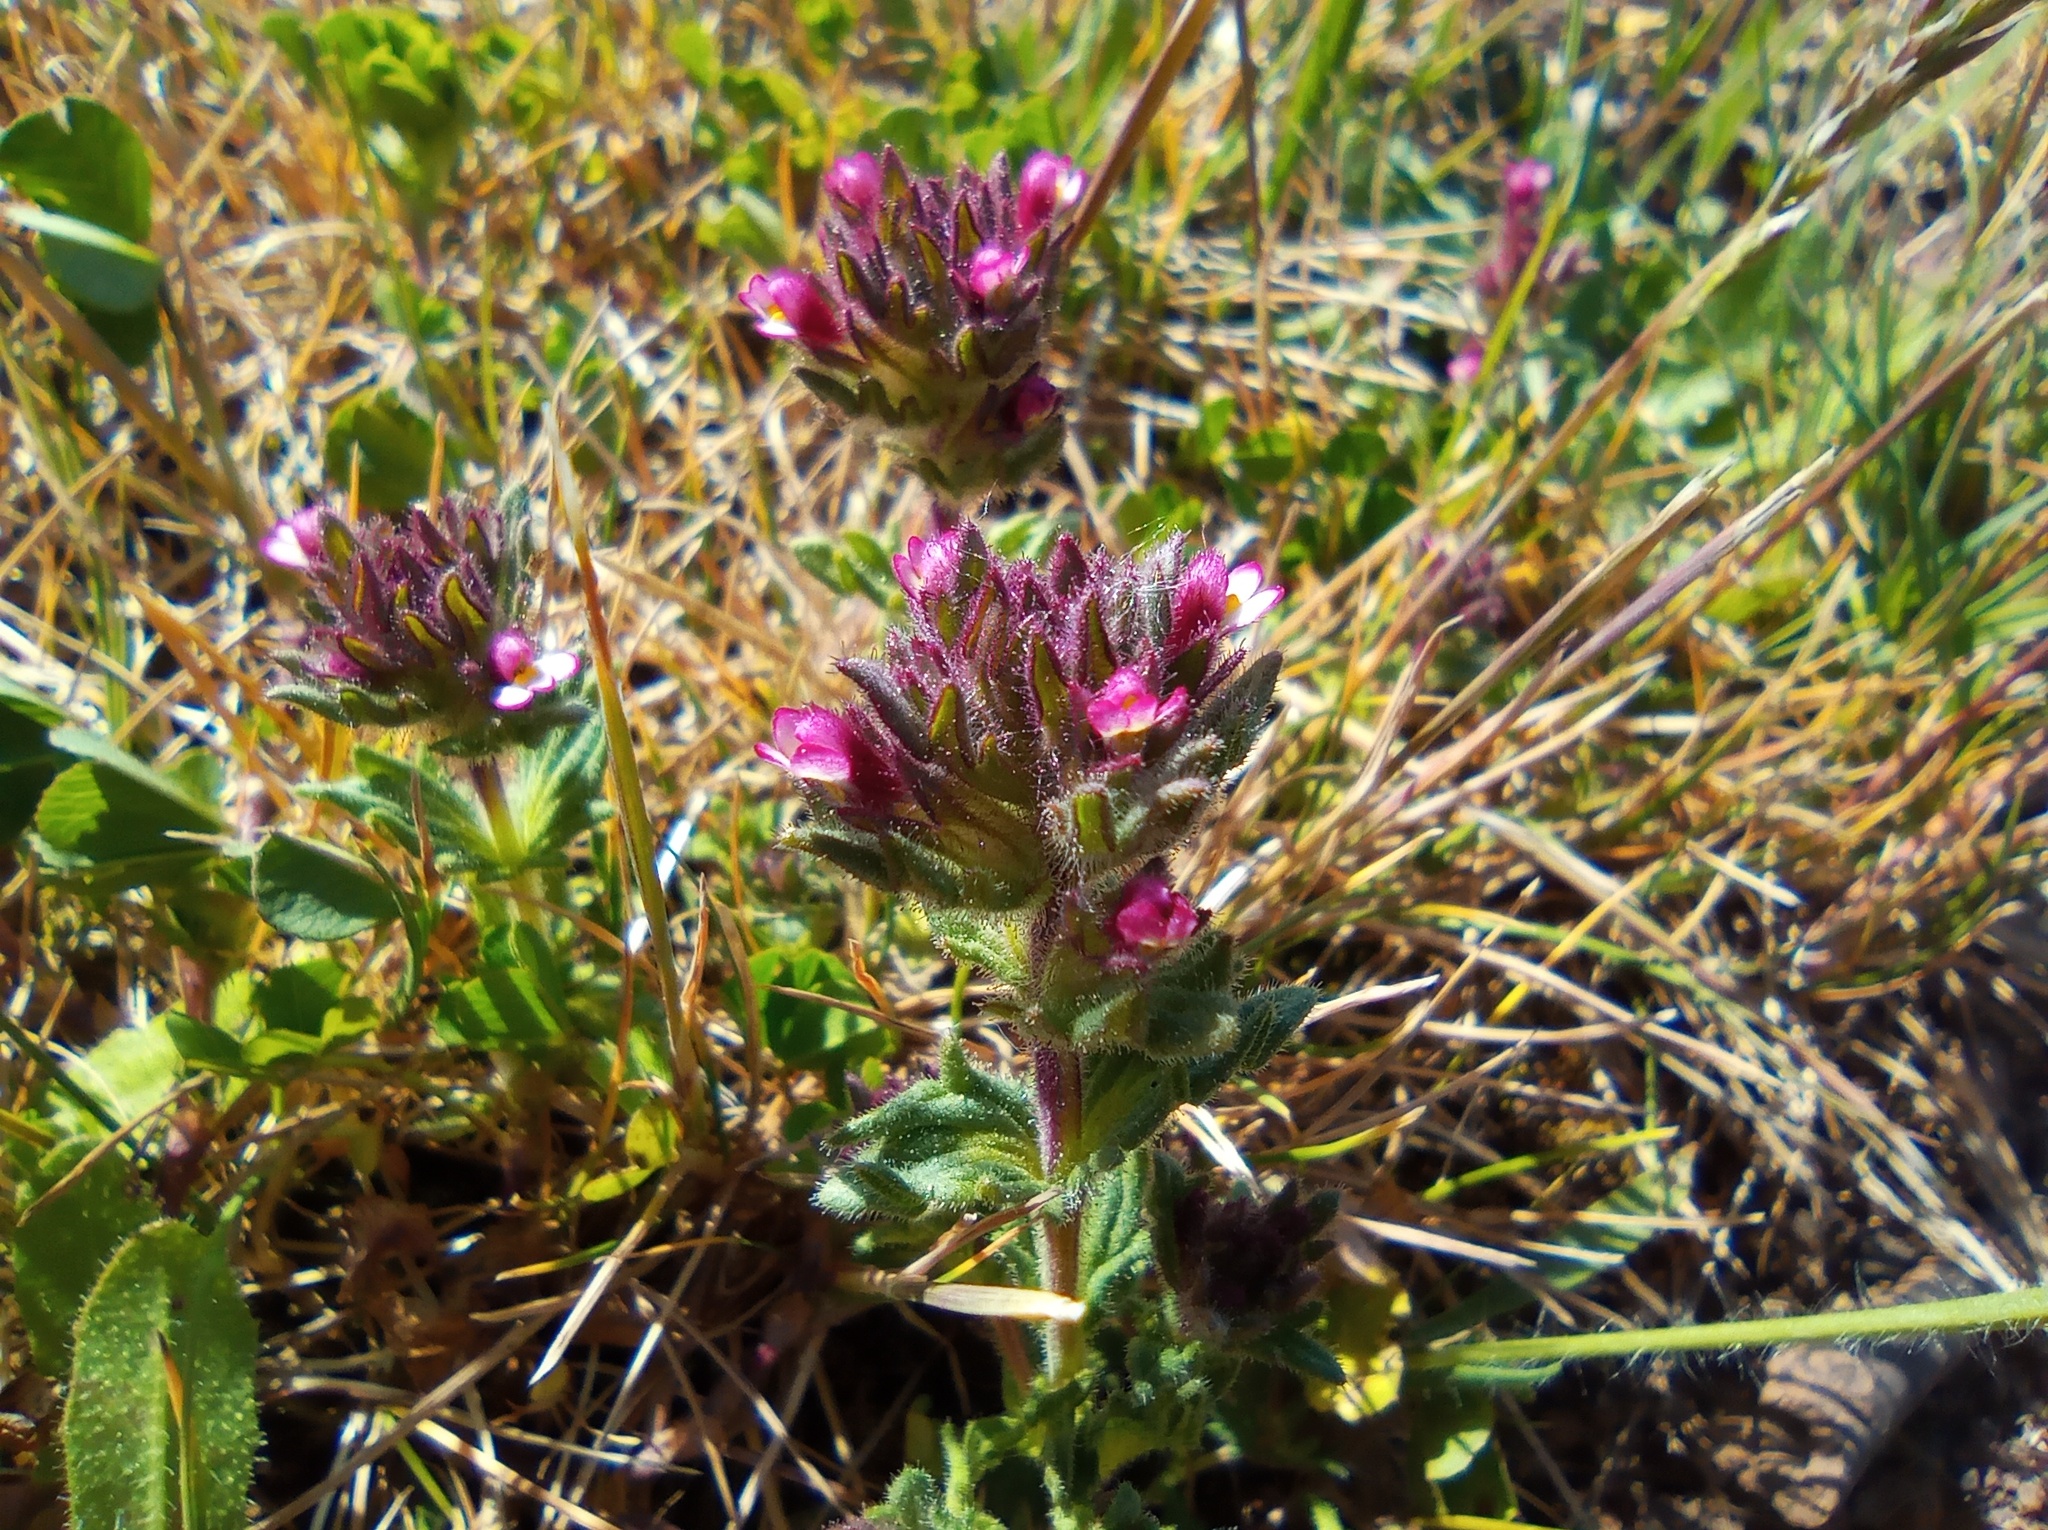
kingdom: Plantae
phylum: Tracheophyta
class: Magnoliopsida
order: Lamiales
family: Orobanchaceae
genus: Parentucellia
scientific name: Parentucellia latifolia
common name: Broadleaf glandweed
